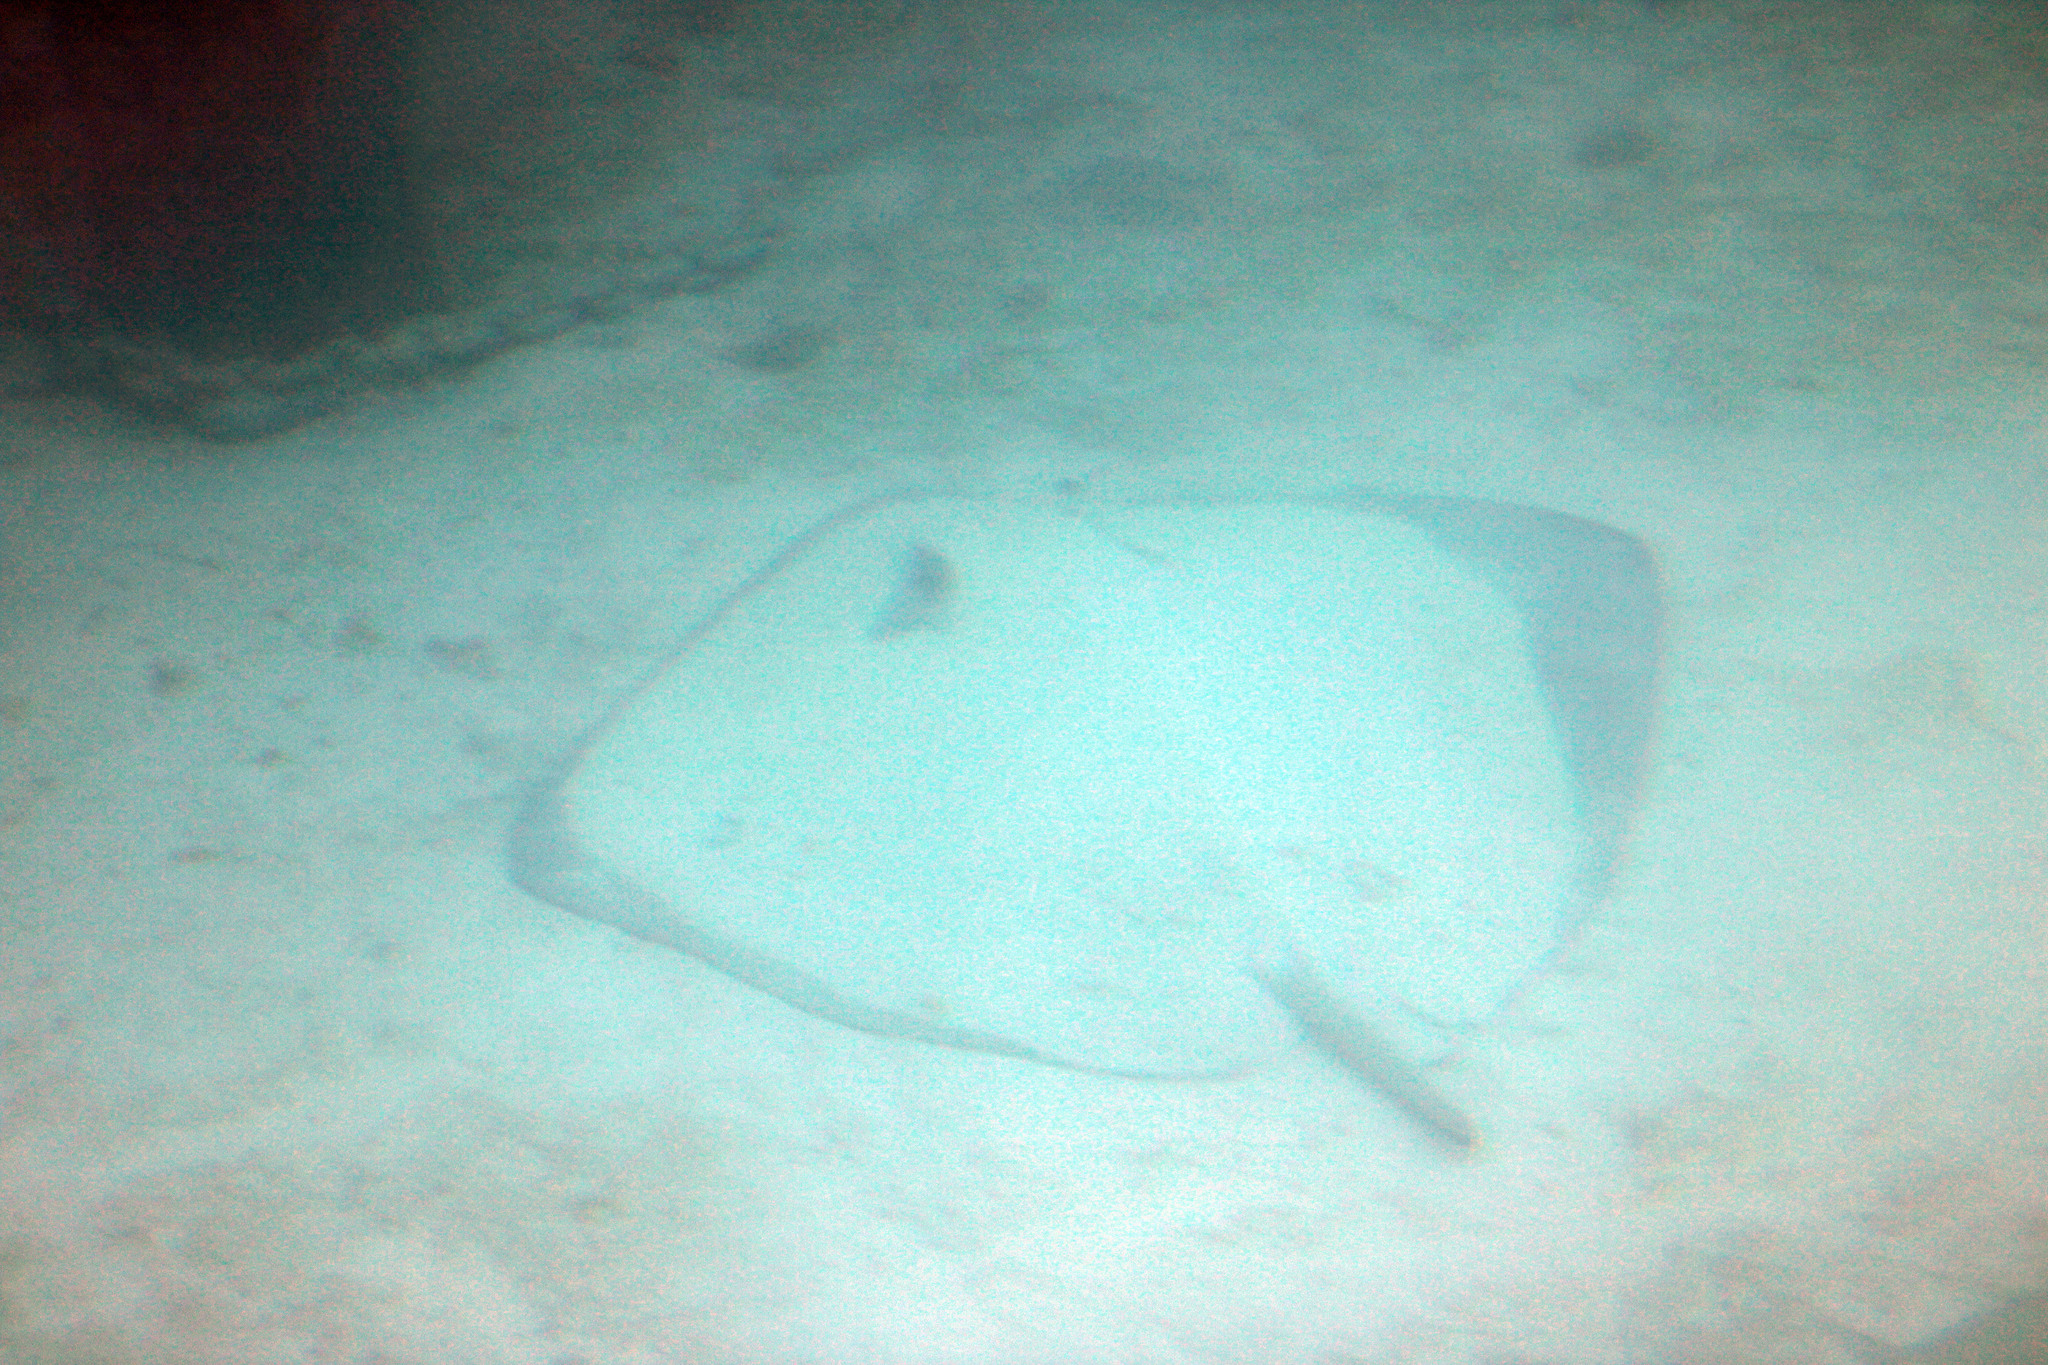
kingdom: Animalia
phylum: Chordata
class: Elasmobranchii
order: Myliobatiformes
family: Dasyatidae
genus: Pateobatis
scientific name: Pateobatis fai
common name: Pink whipray
